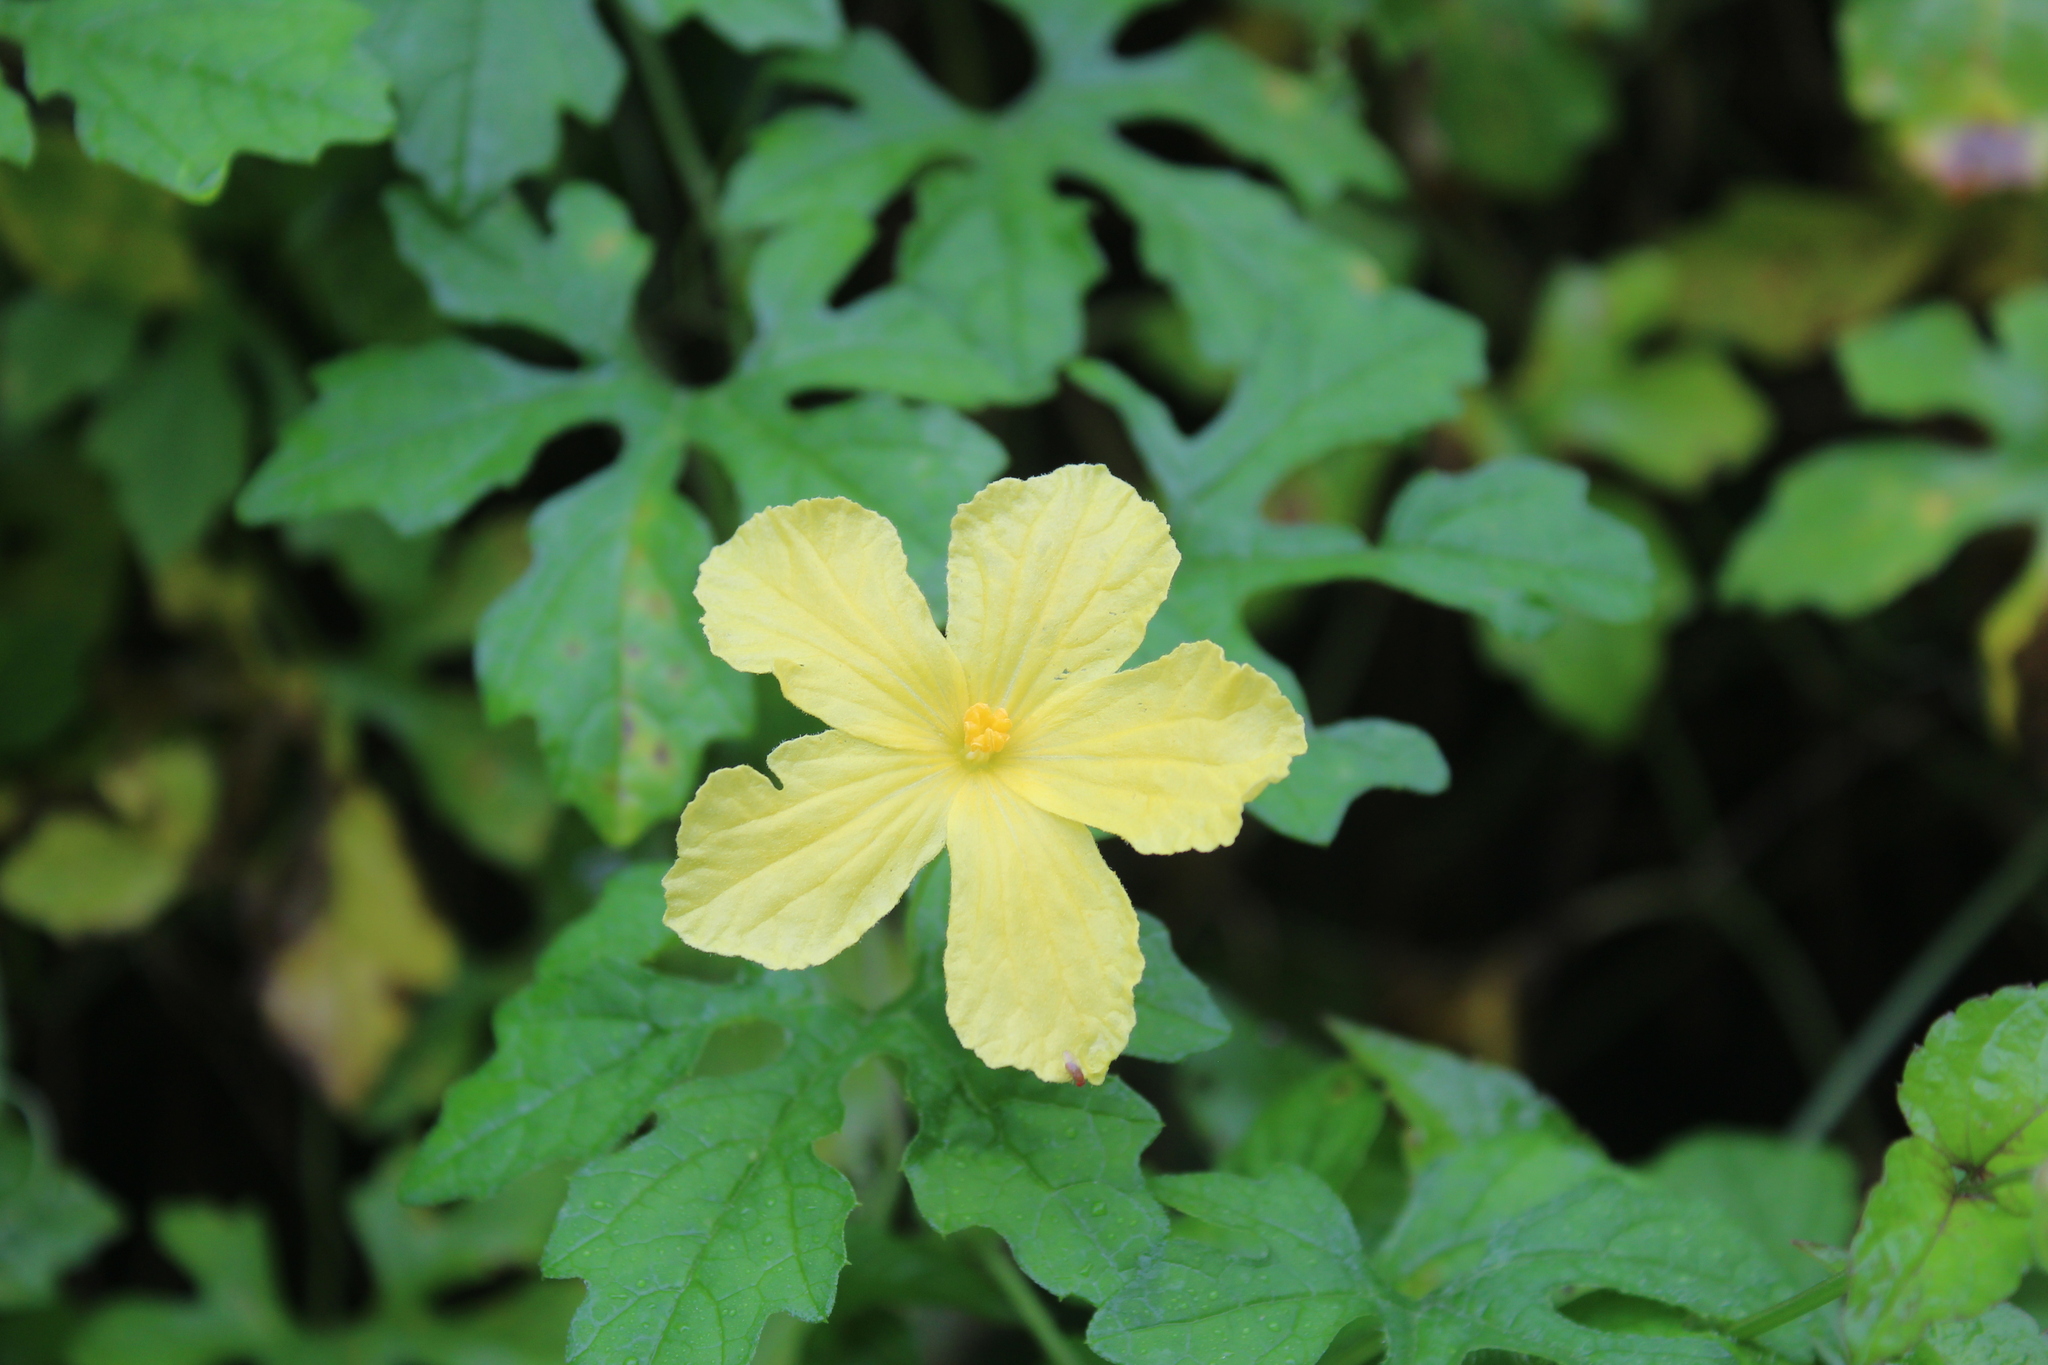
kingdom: Plantae
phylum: Tracheophyta
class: Magnoliopsida
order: Cucurbitales
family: Cucurbitaceae
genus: Momordica
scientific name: Momordica charantia
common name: Balsampear
